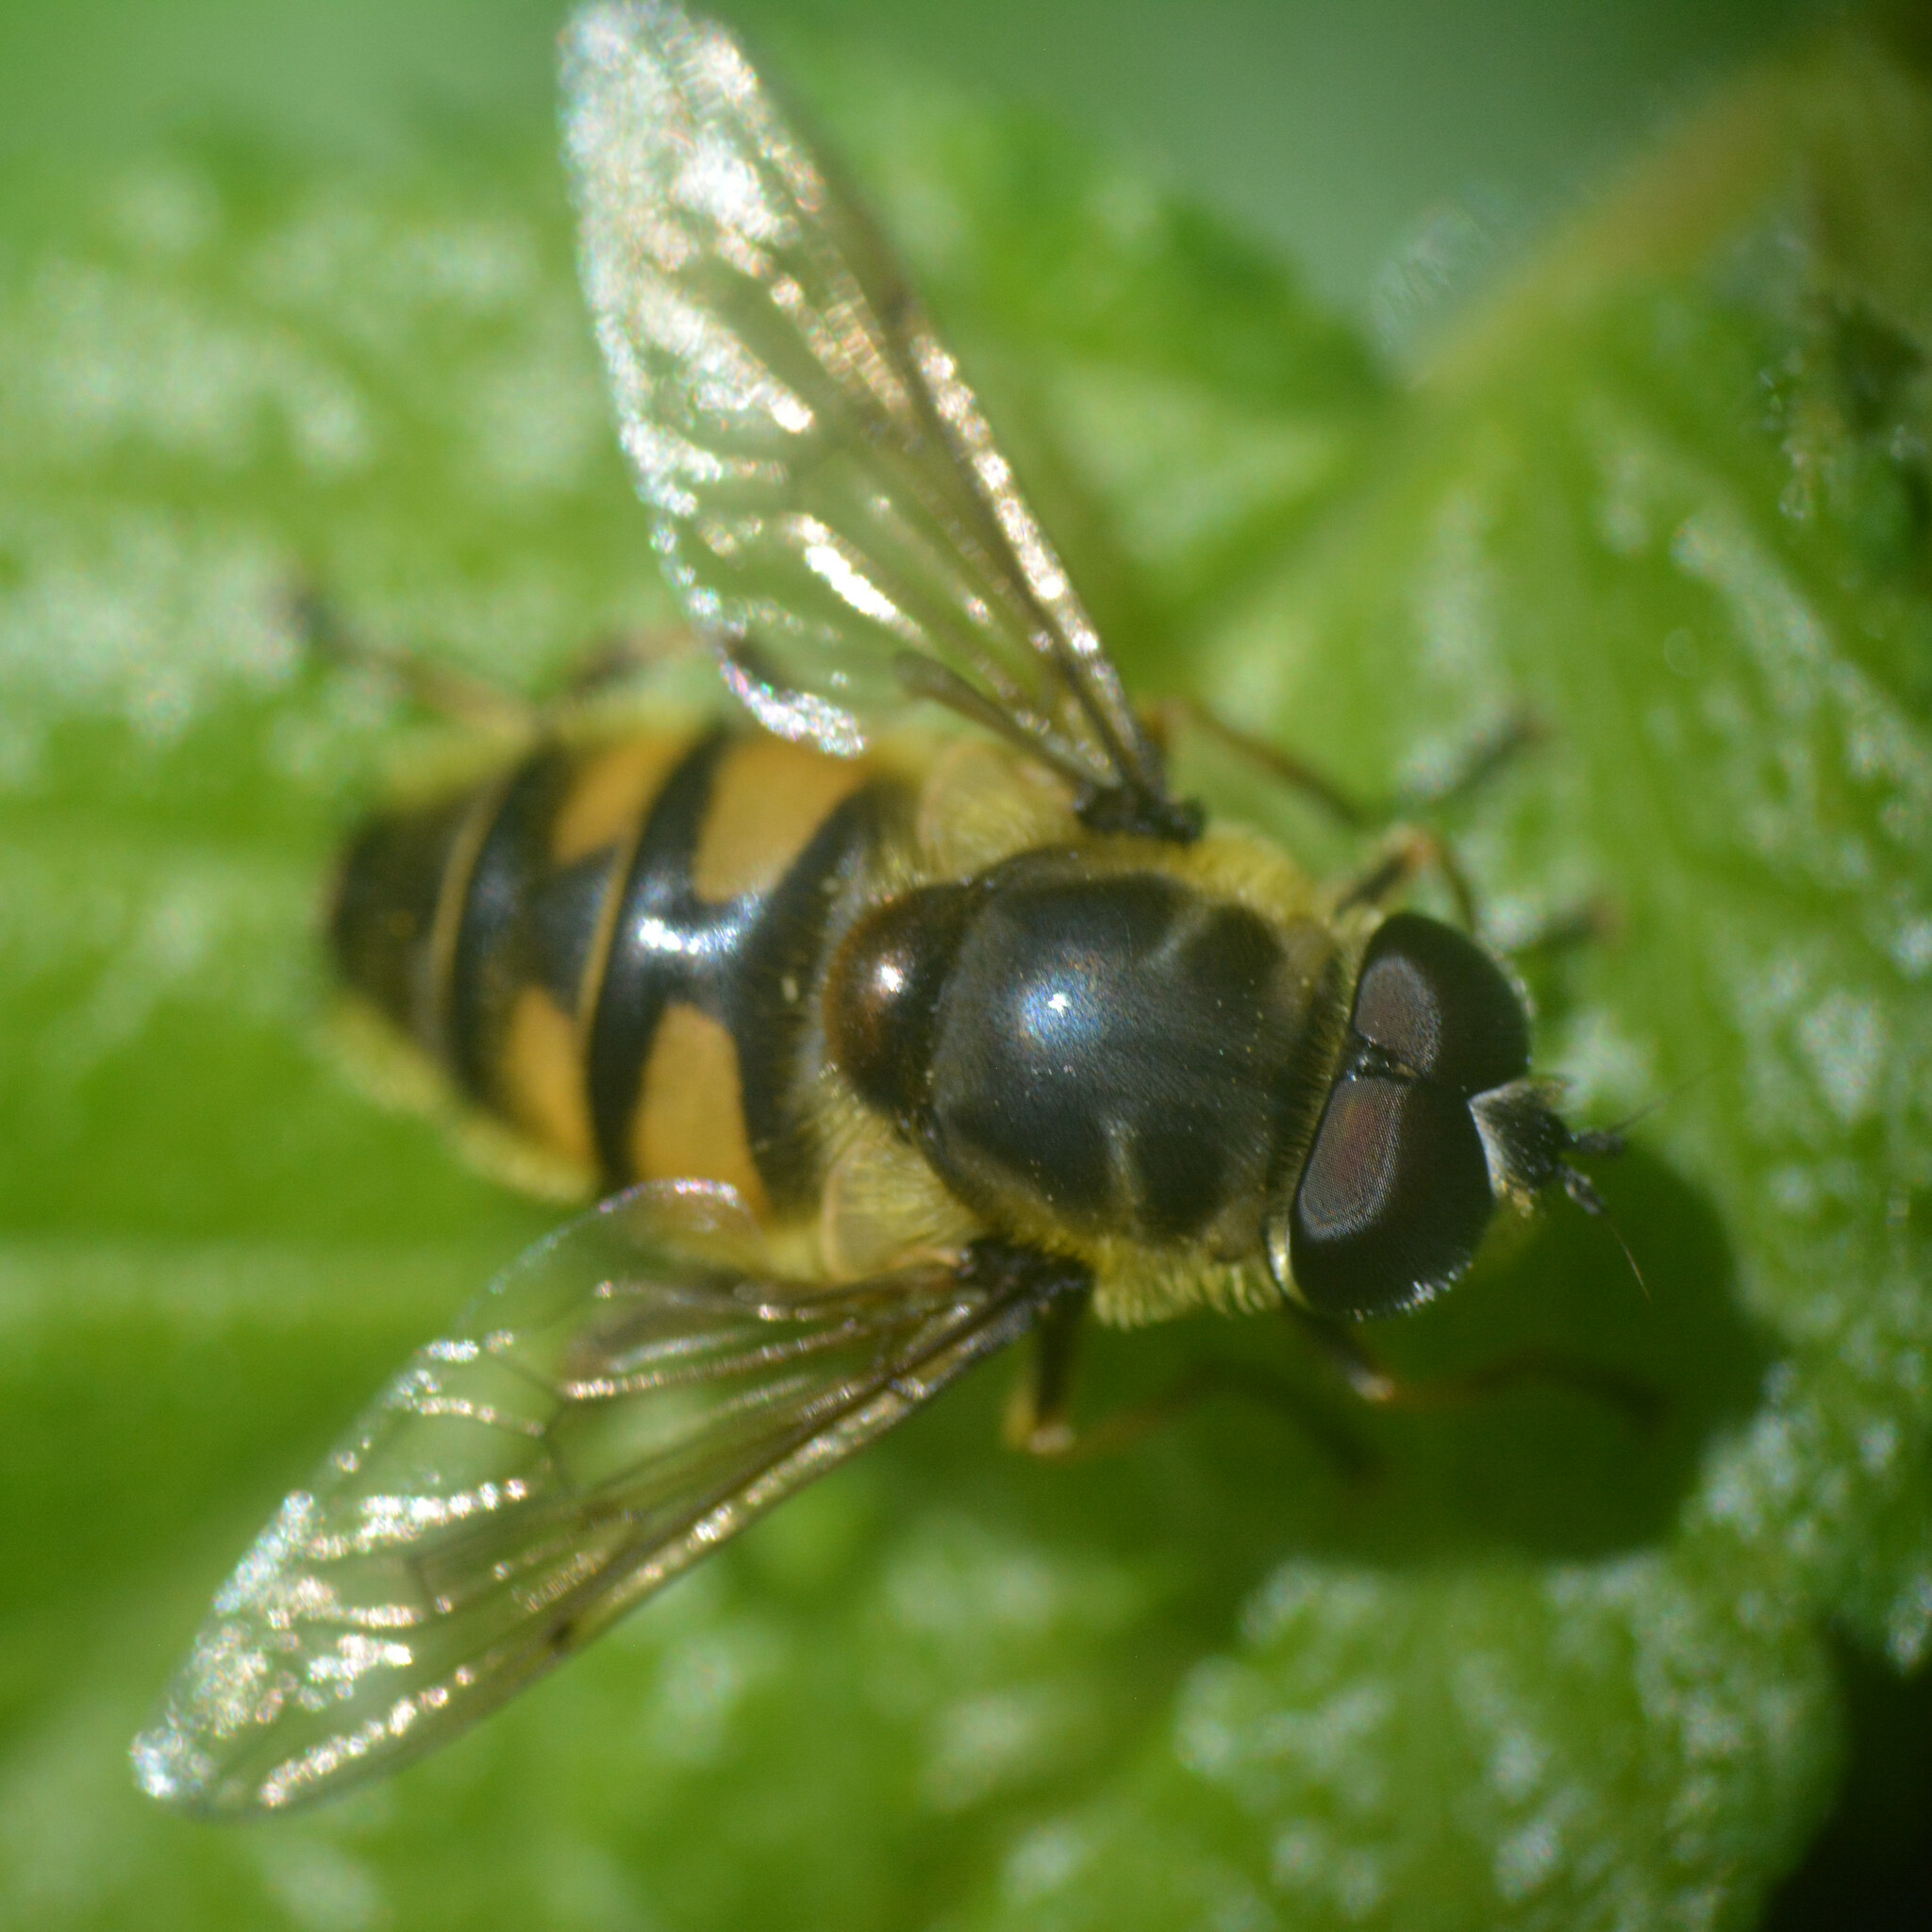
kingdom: Animalia
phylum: Arthropoda
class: Insecta
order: Diptera
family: Syrphidae
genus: Myathropa
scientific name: Myathropa florea
